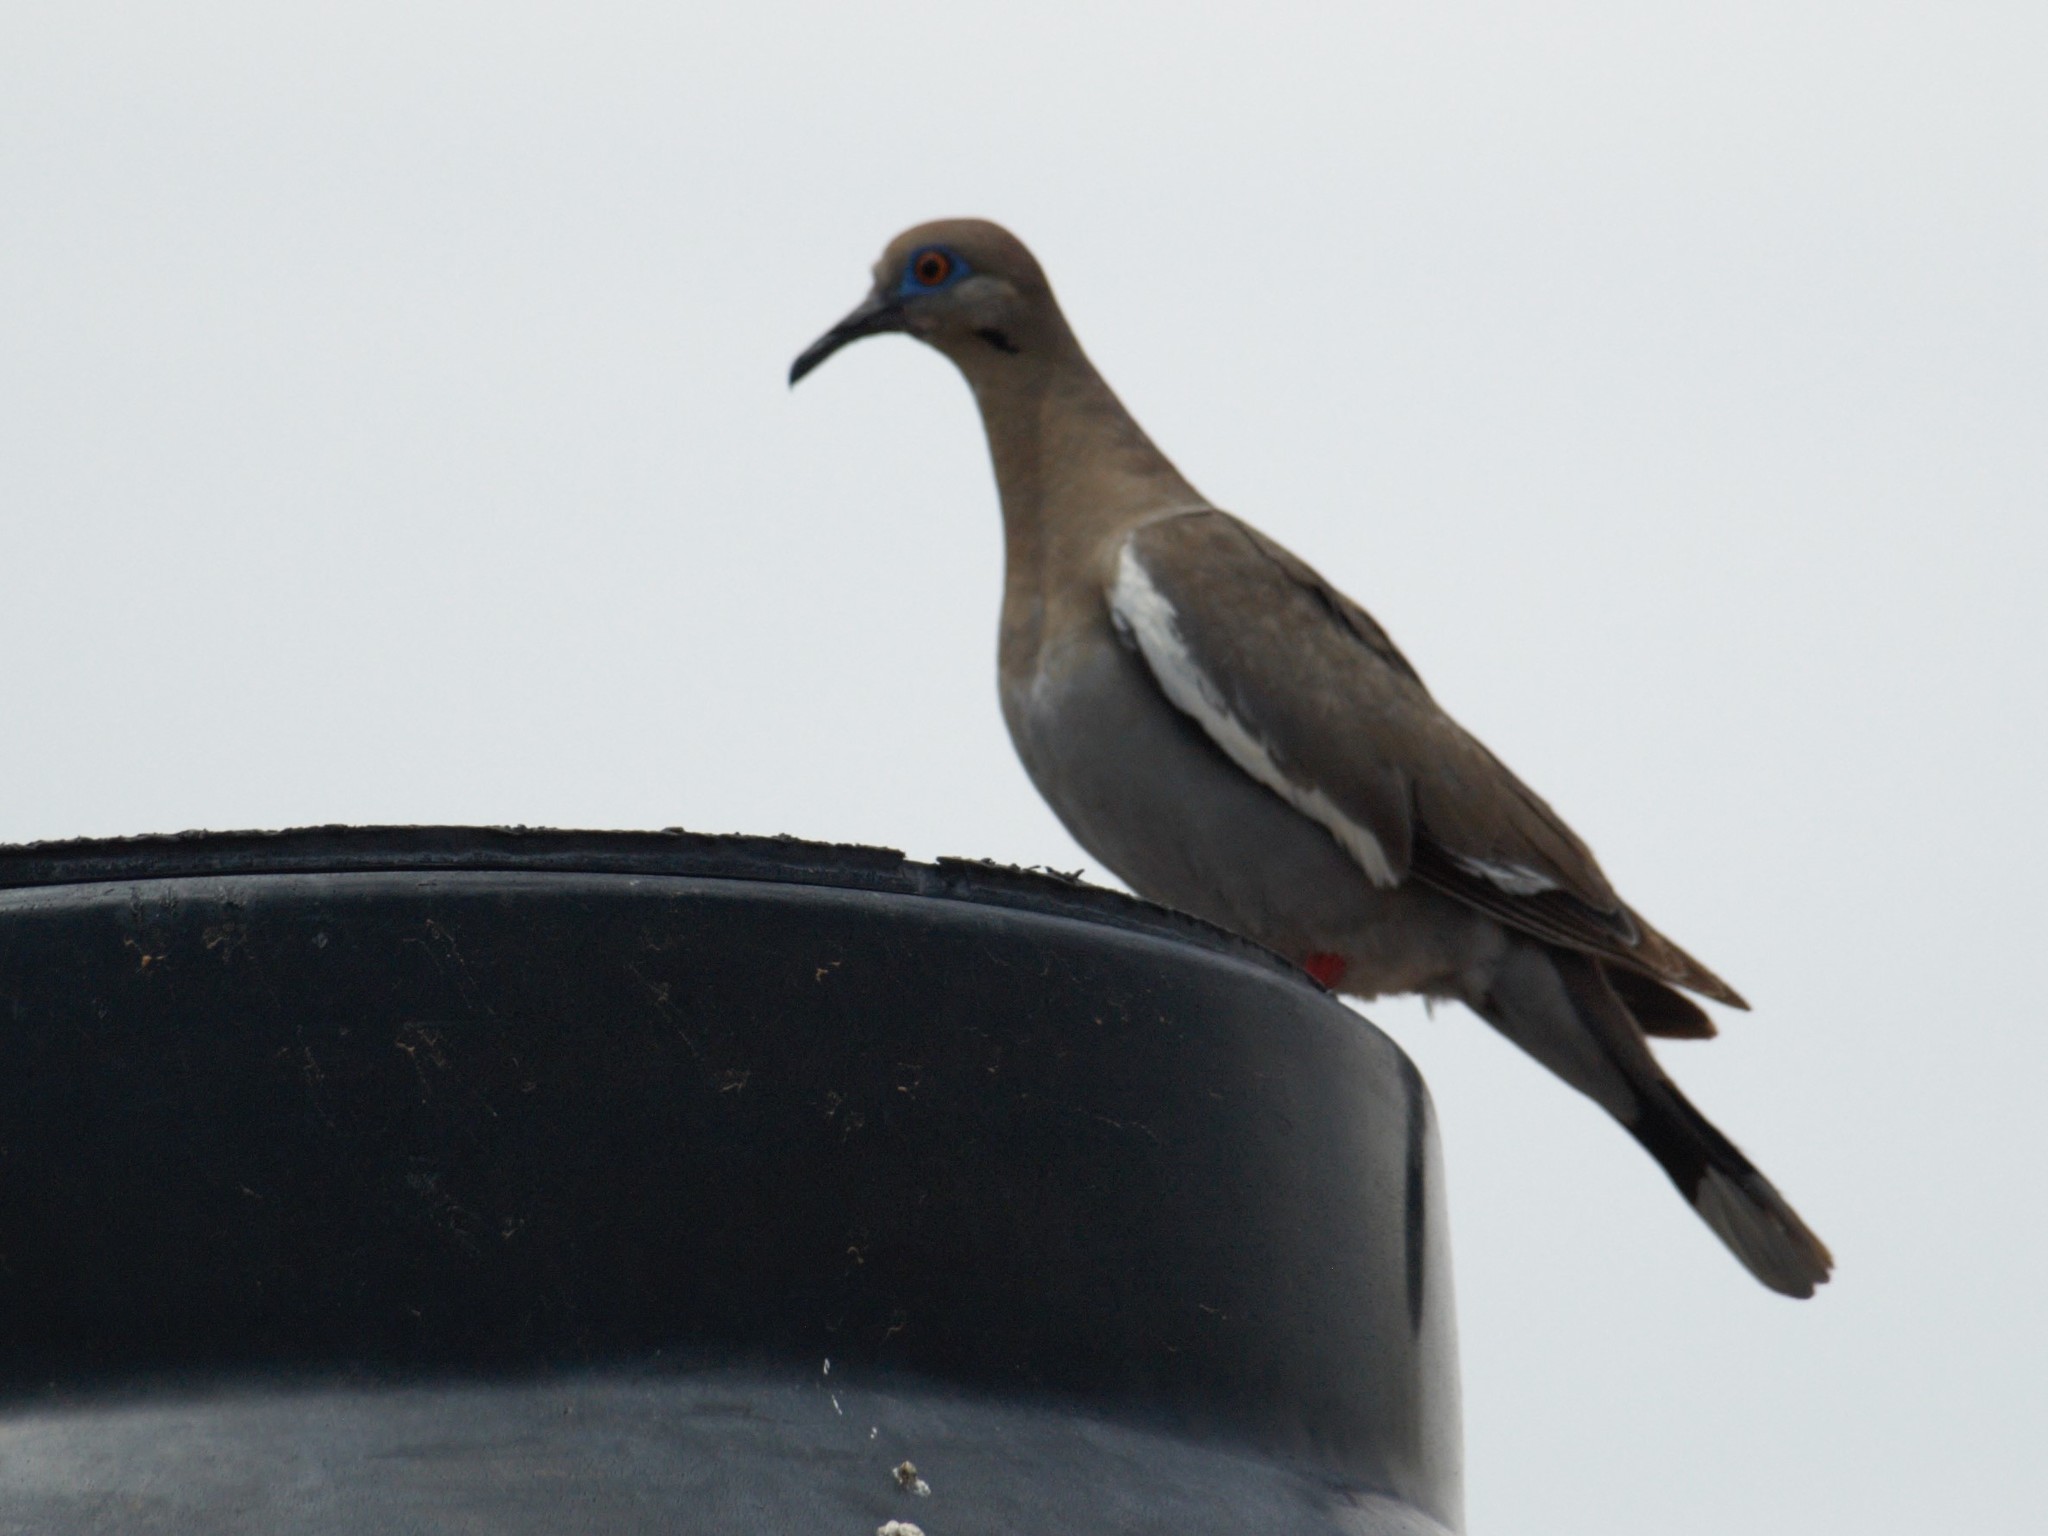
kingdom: Animalia
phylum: Chordata
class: Aves
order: Columbiformes
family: Columbidae
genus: Zenaida
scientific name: Zenaida asiatica
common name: White-winged dove
